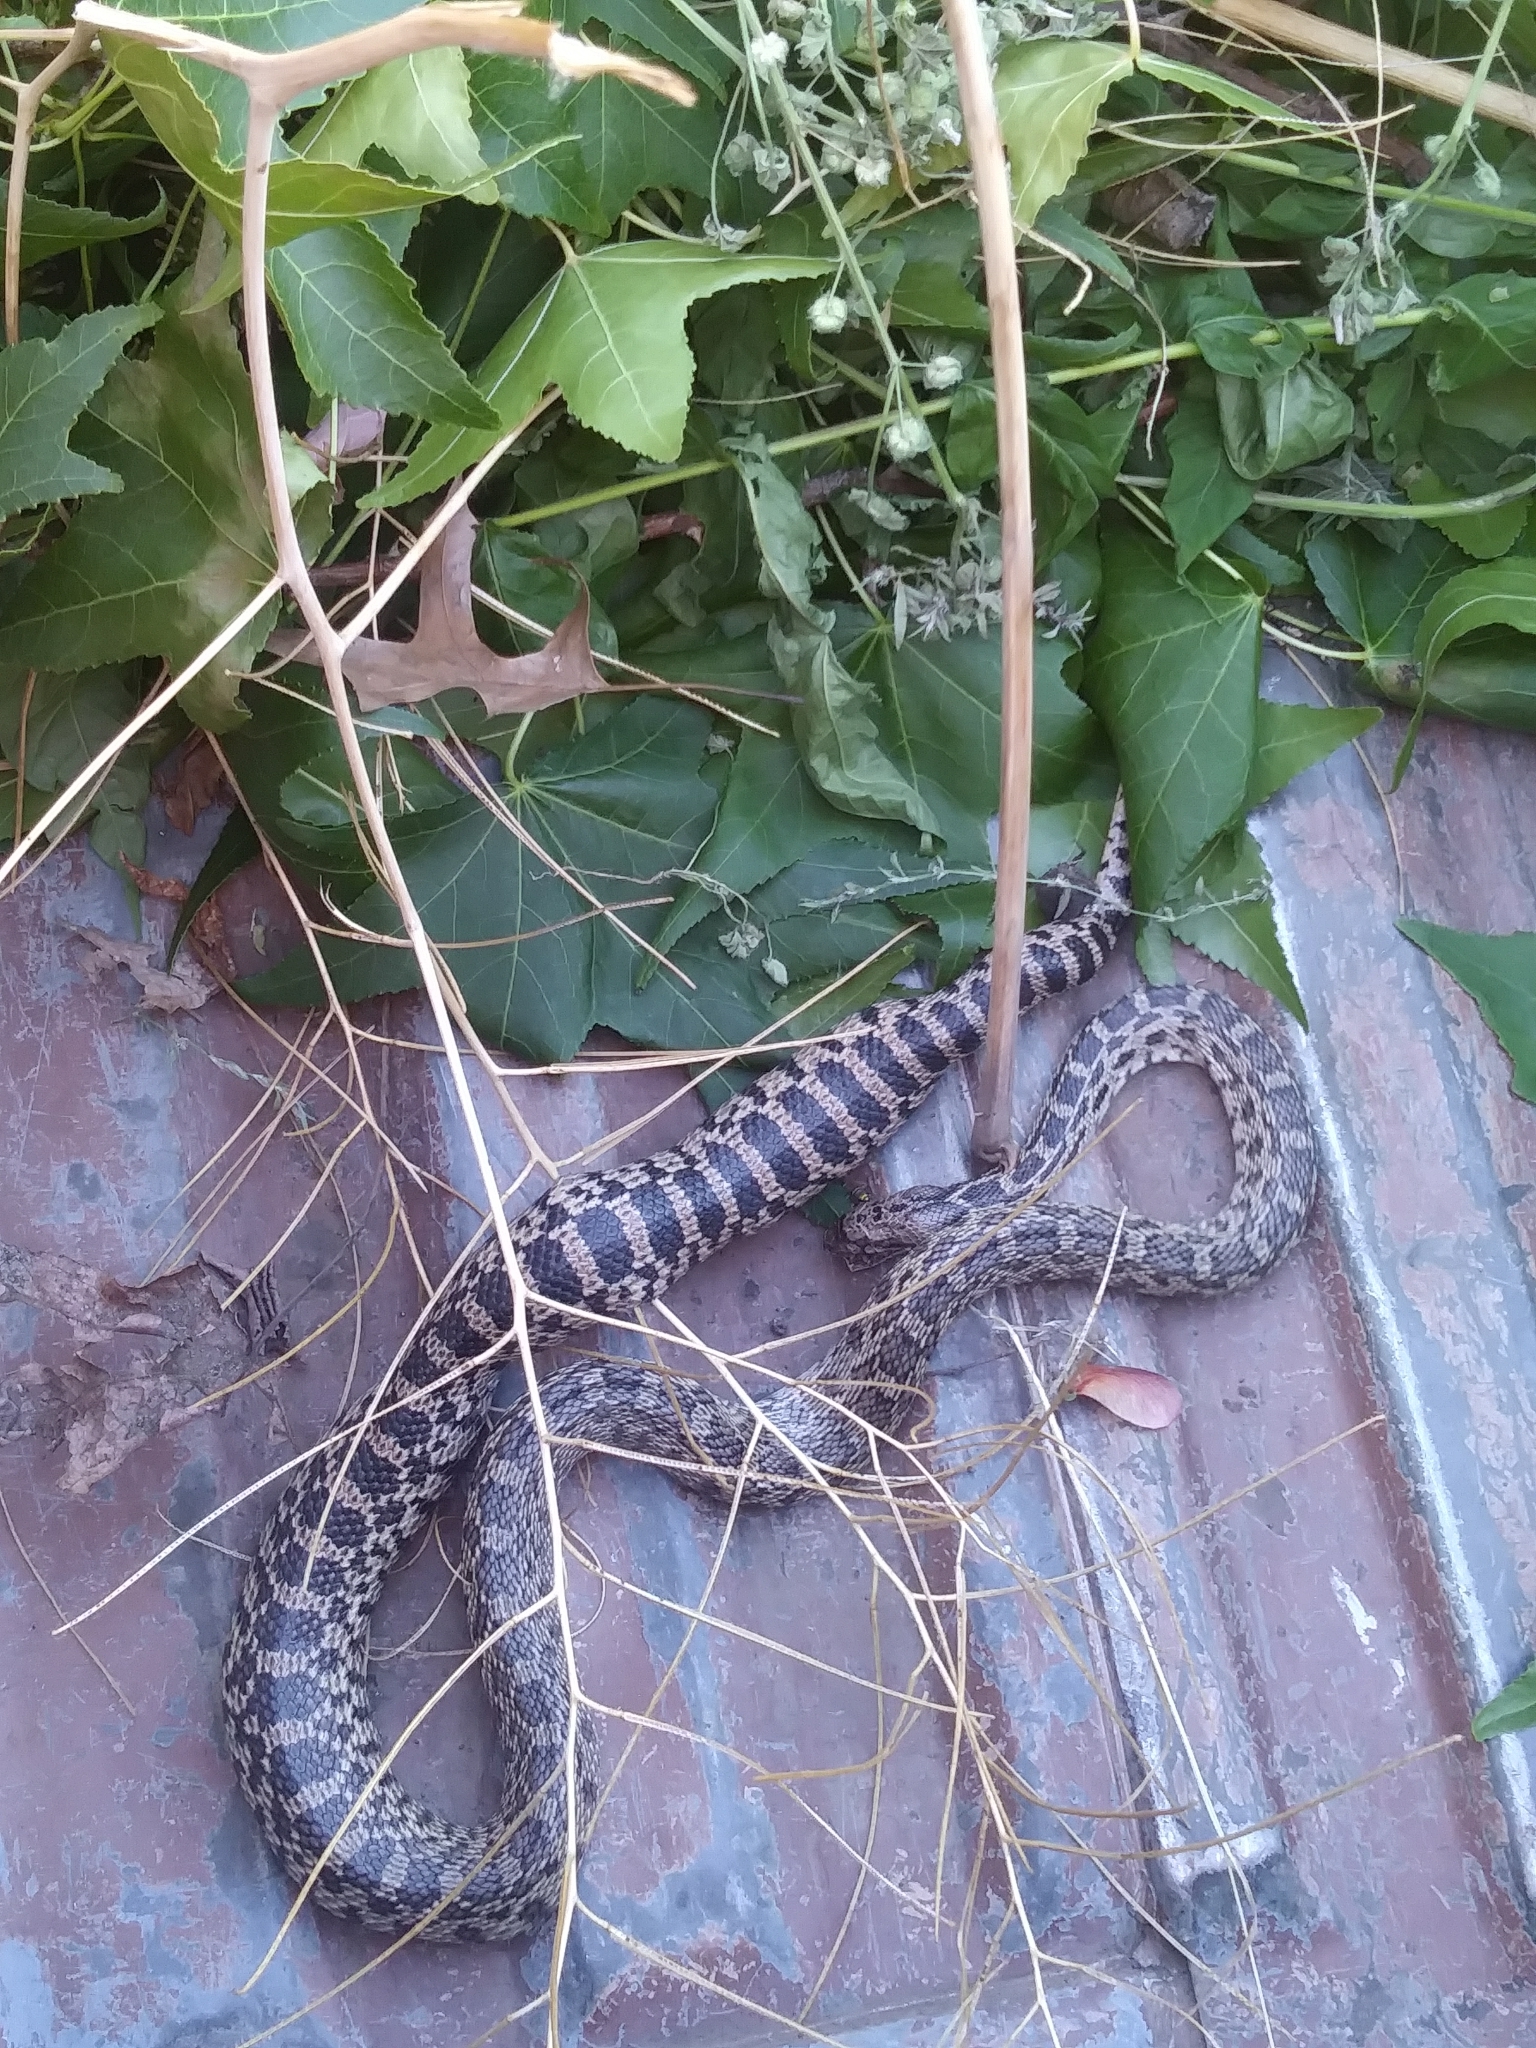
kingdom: Animalia
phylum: Chordata
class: Squamata
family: Colubridae
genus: Pituophis
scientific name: Pituophis catenifer
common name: Gopher snake
